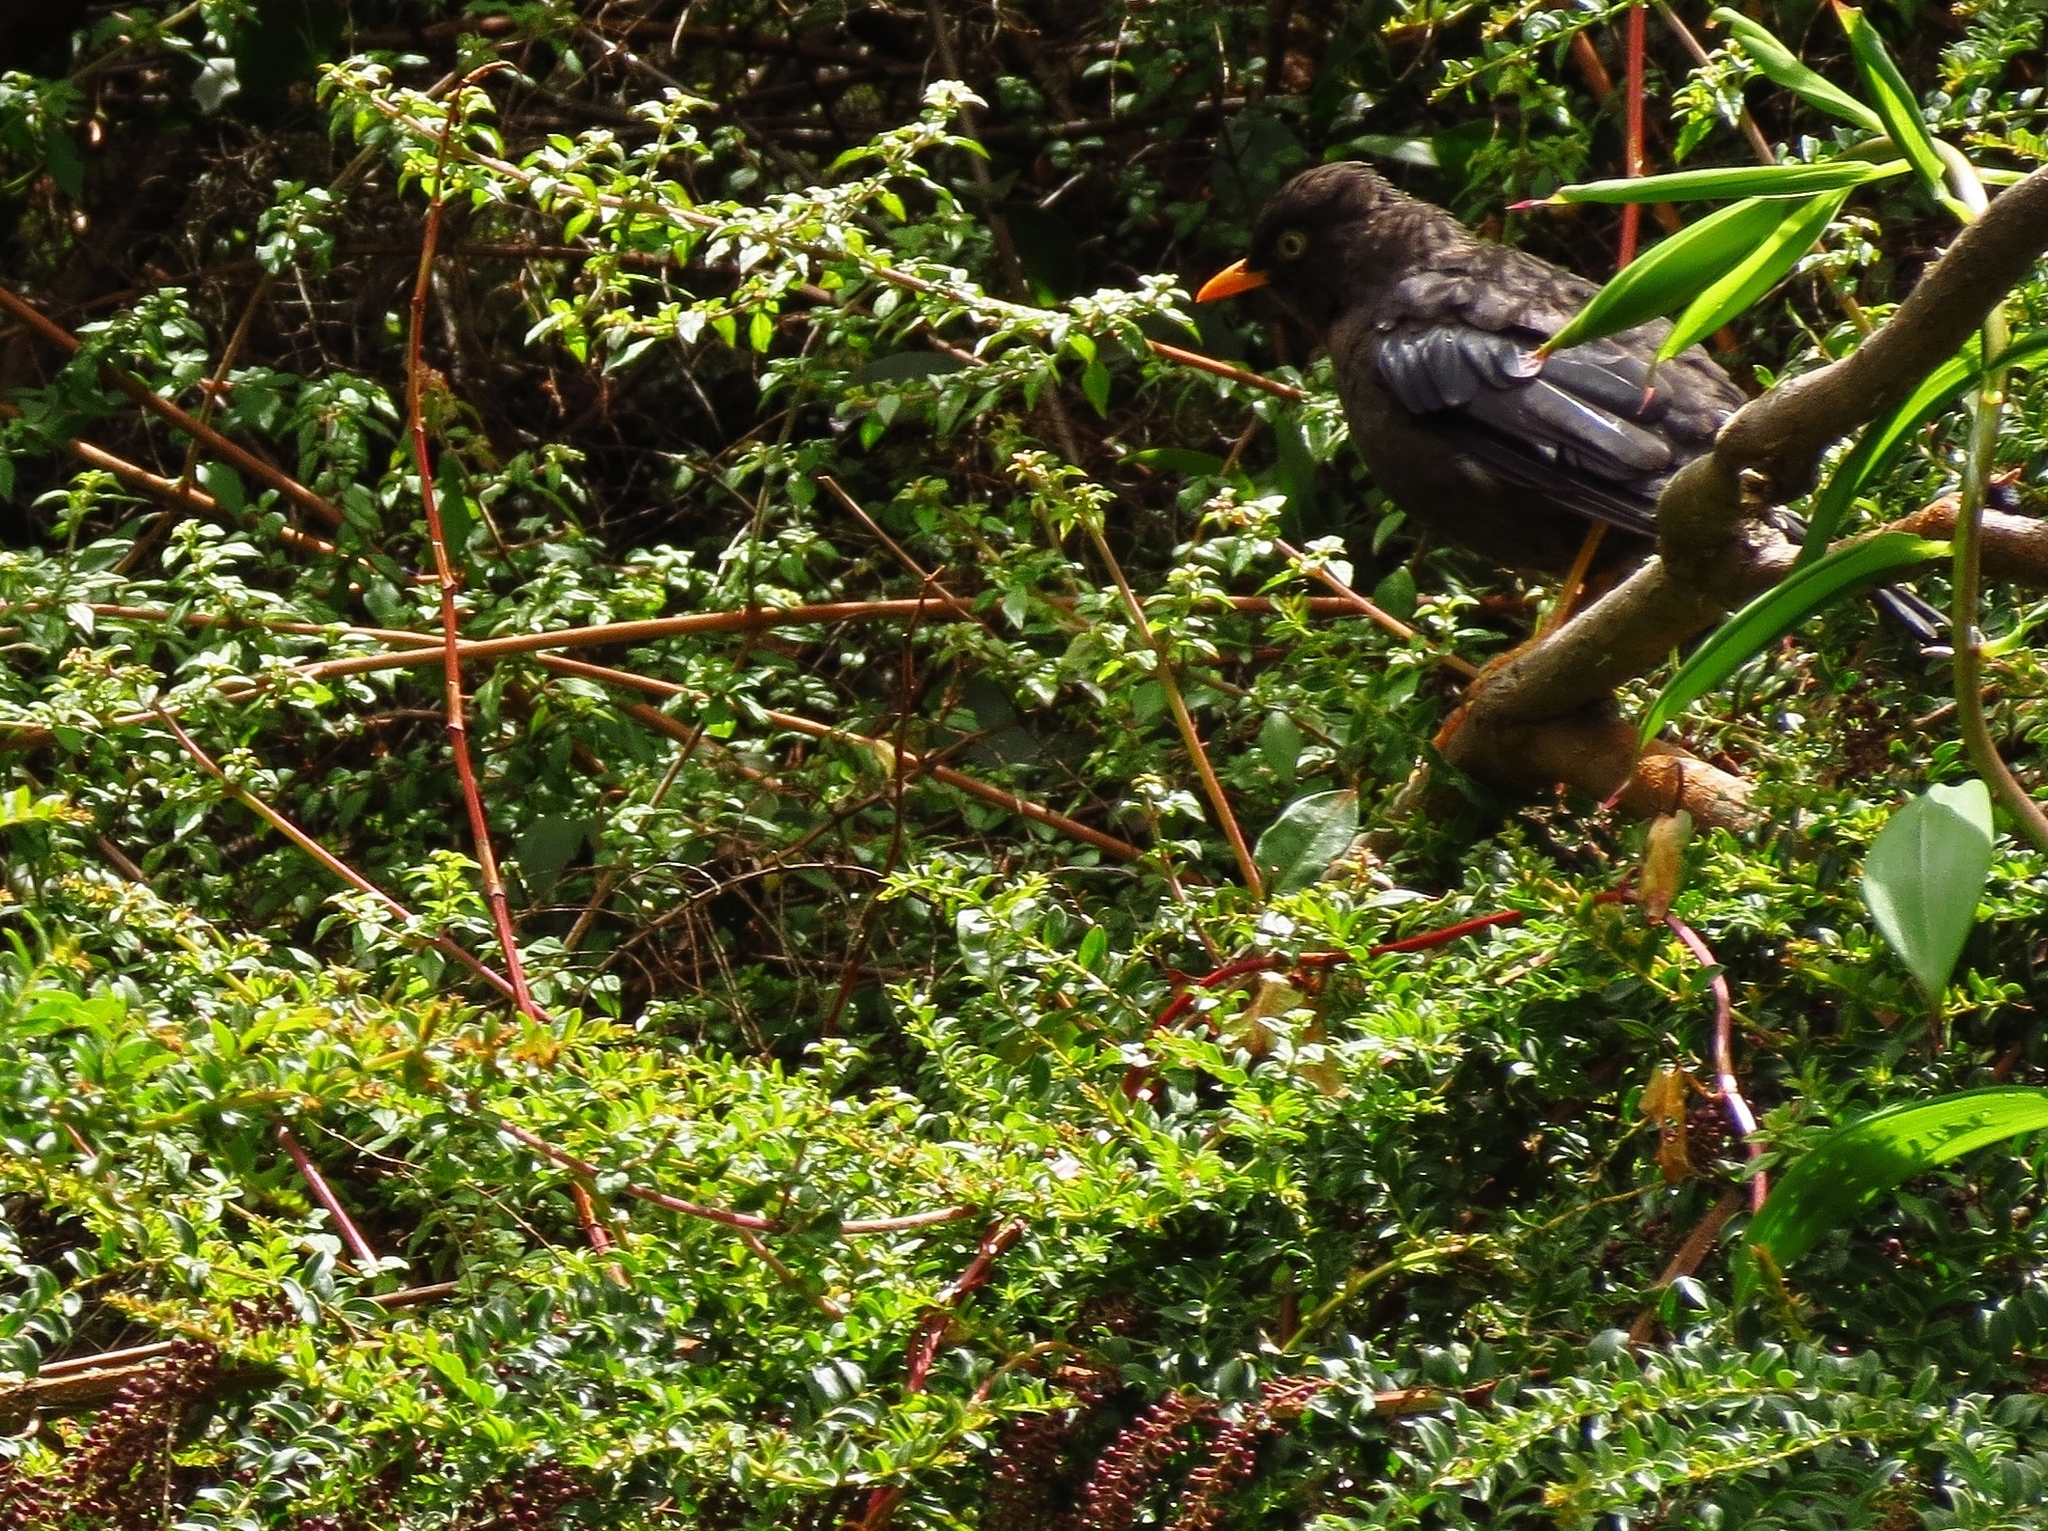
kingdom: Animalia
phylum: Chordata
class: Aves
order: Passeriformes
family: Turdidae
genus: Turdus
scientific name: Turdus nigrescens
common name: Sooty thrush
